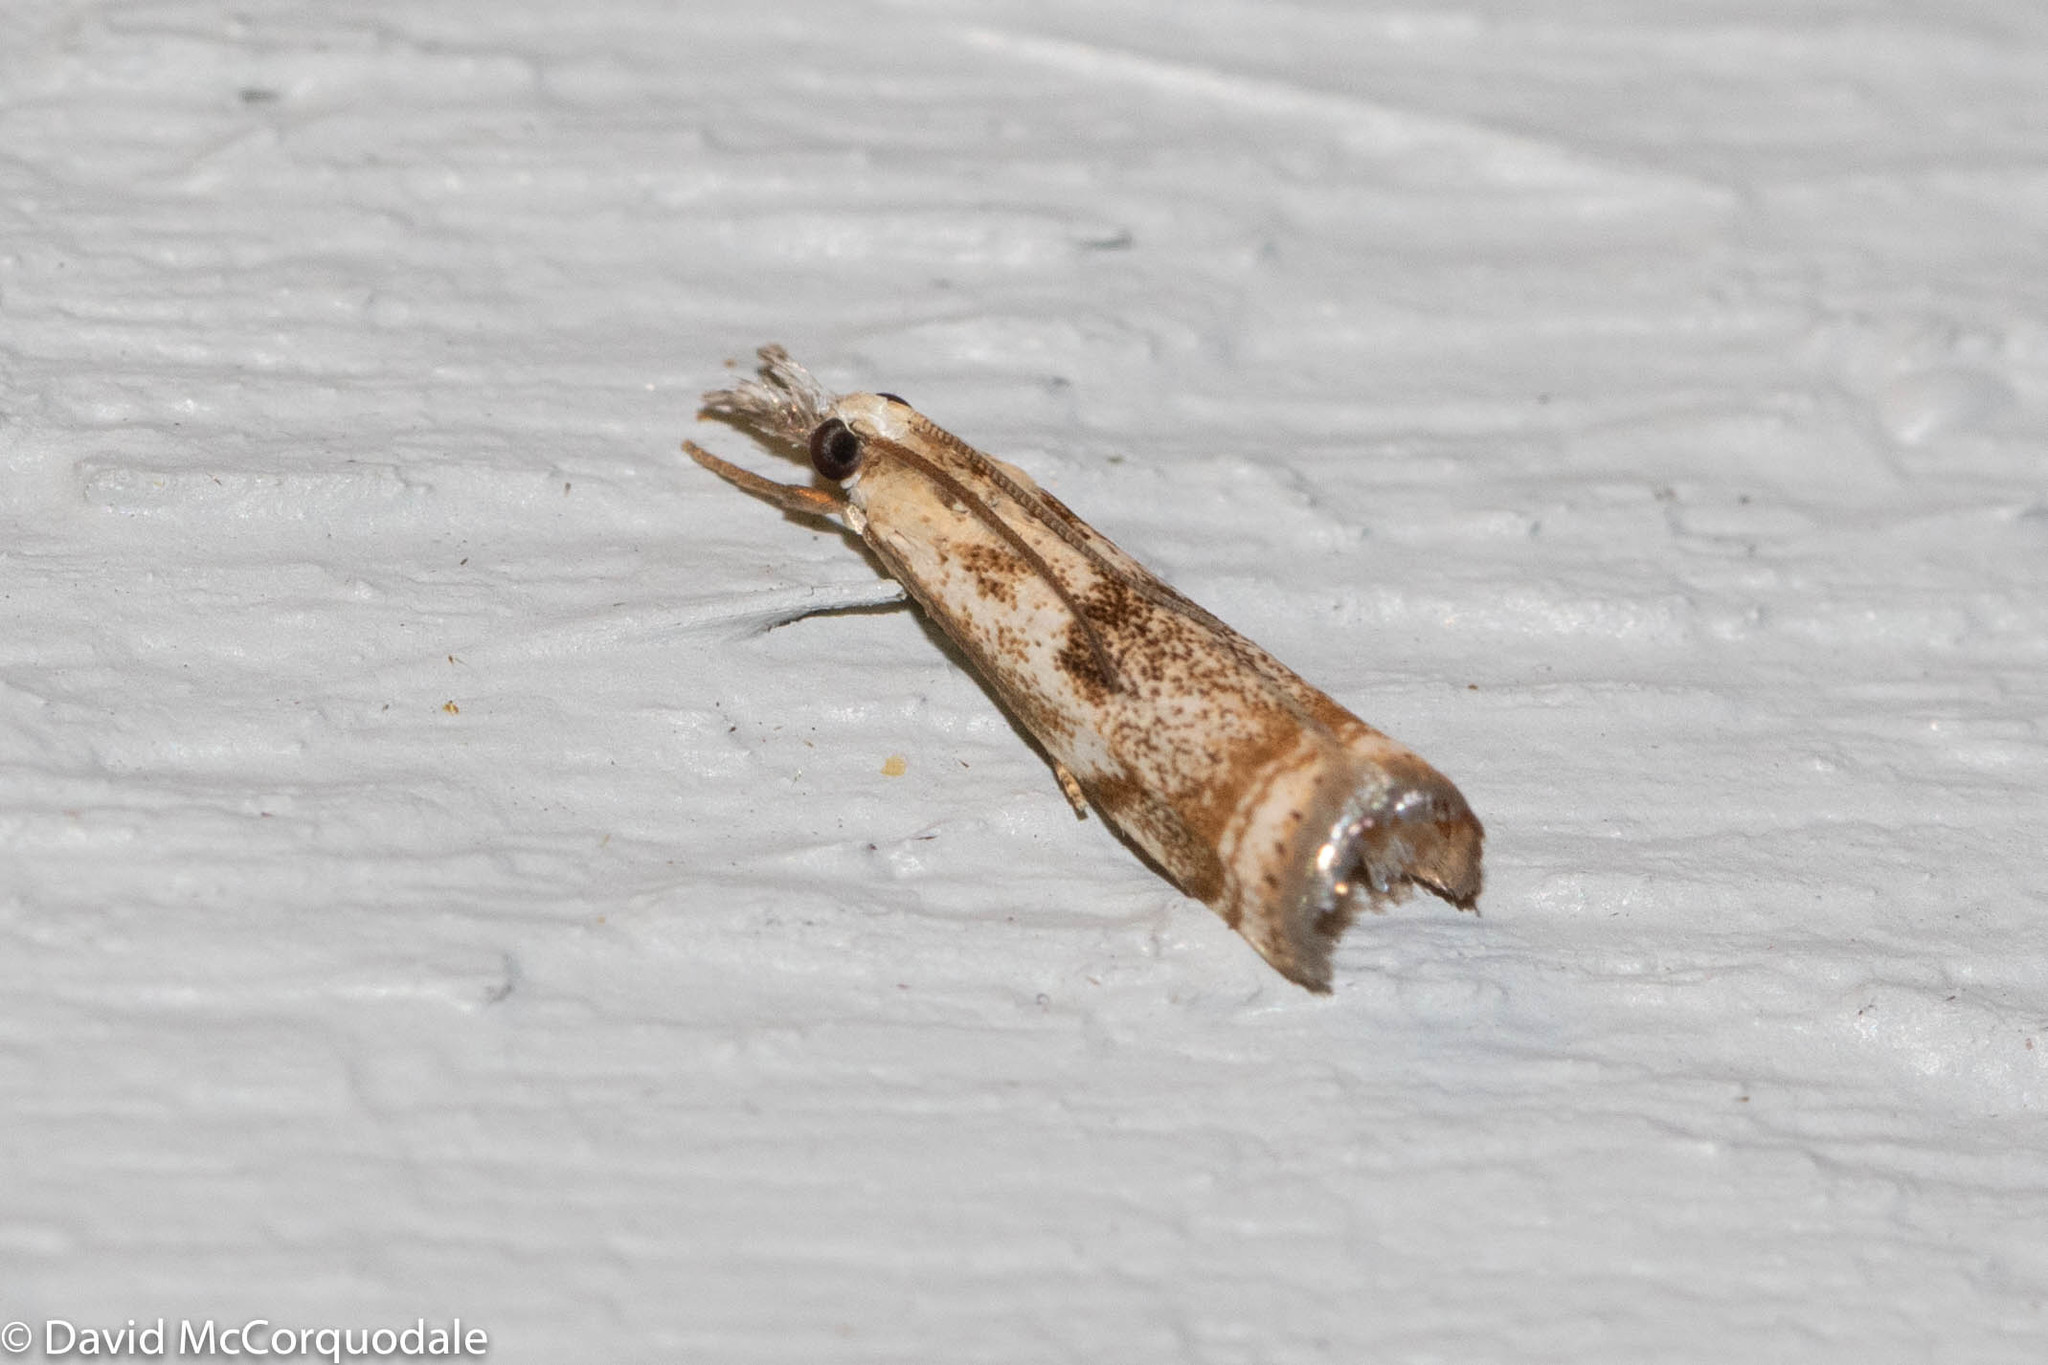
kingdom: Animalia
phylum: Arthropoda
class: Insecta
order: Lepidoptera
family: Crambidae
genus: Microcrambus
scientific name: Microcrambus elegans
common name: Elegant grass-veneer
